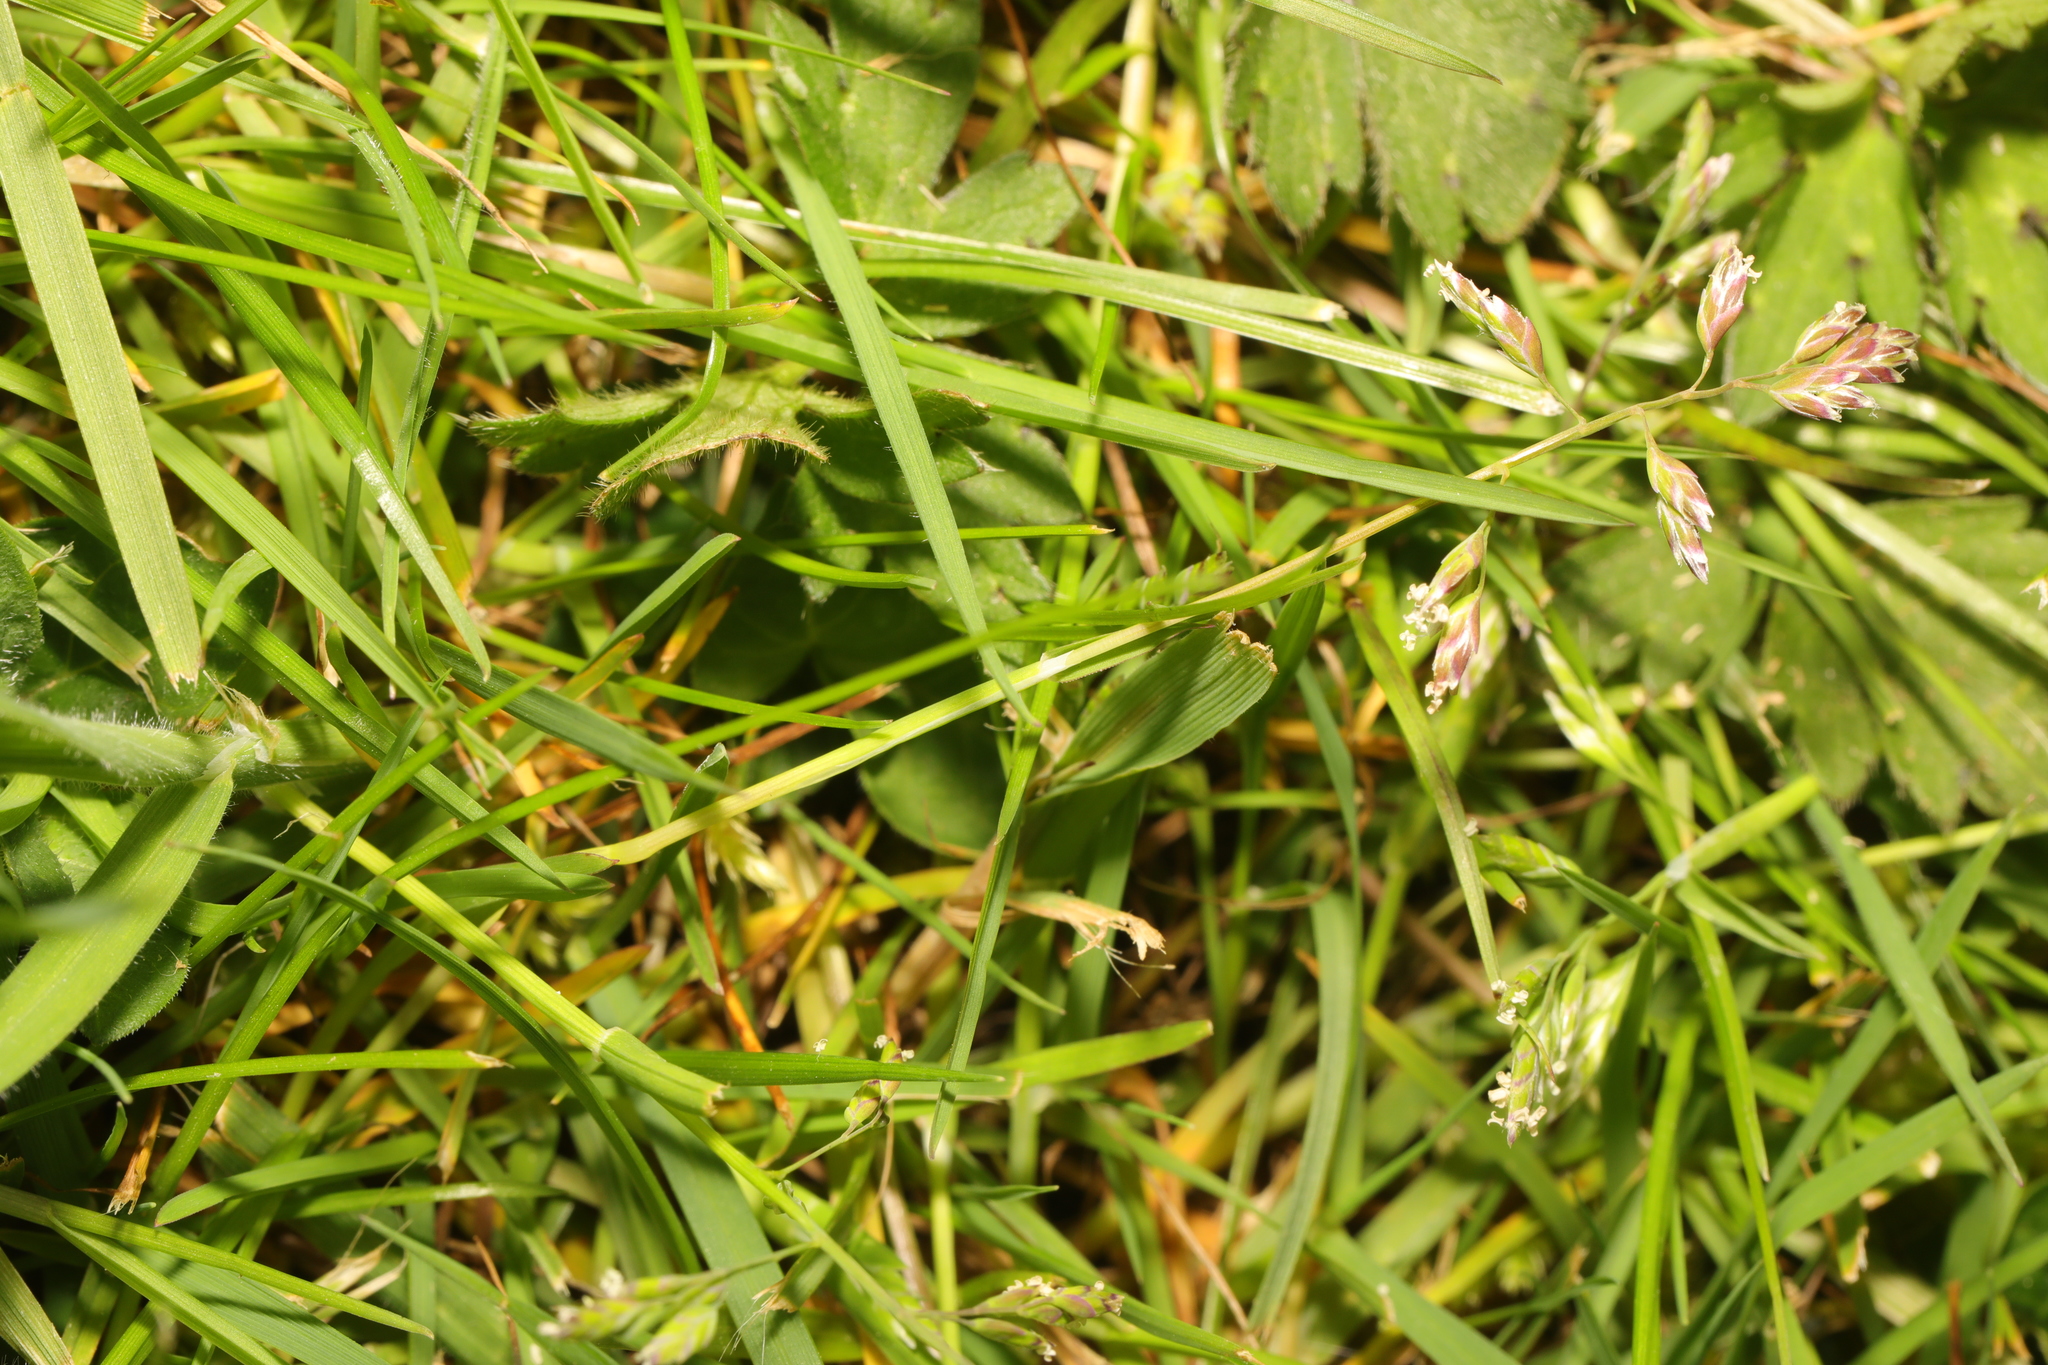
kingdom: Plantae
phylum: Tracheophyta
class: Liliopsida
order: Poales
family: Poaceae
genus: Poa
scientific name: Poa annua
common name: Annual bluegrass
